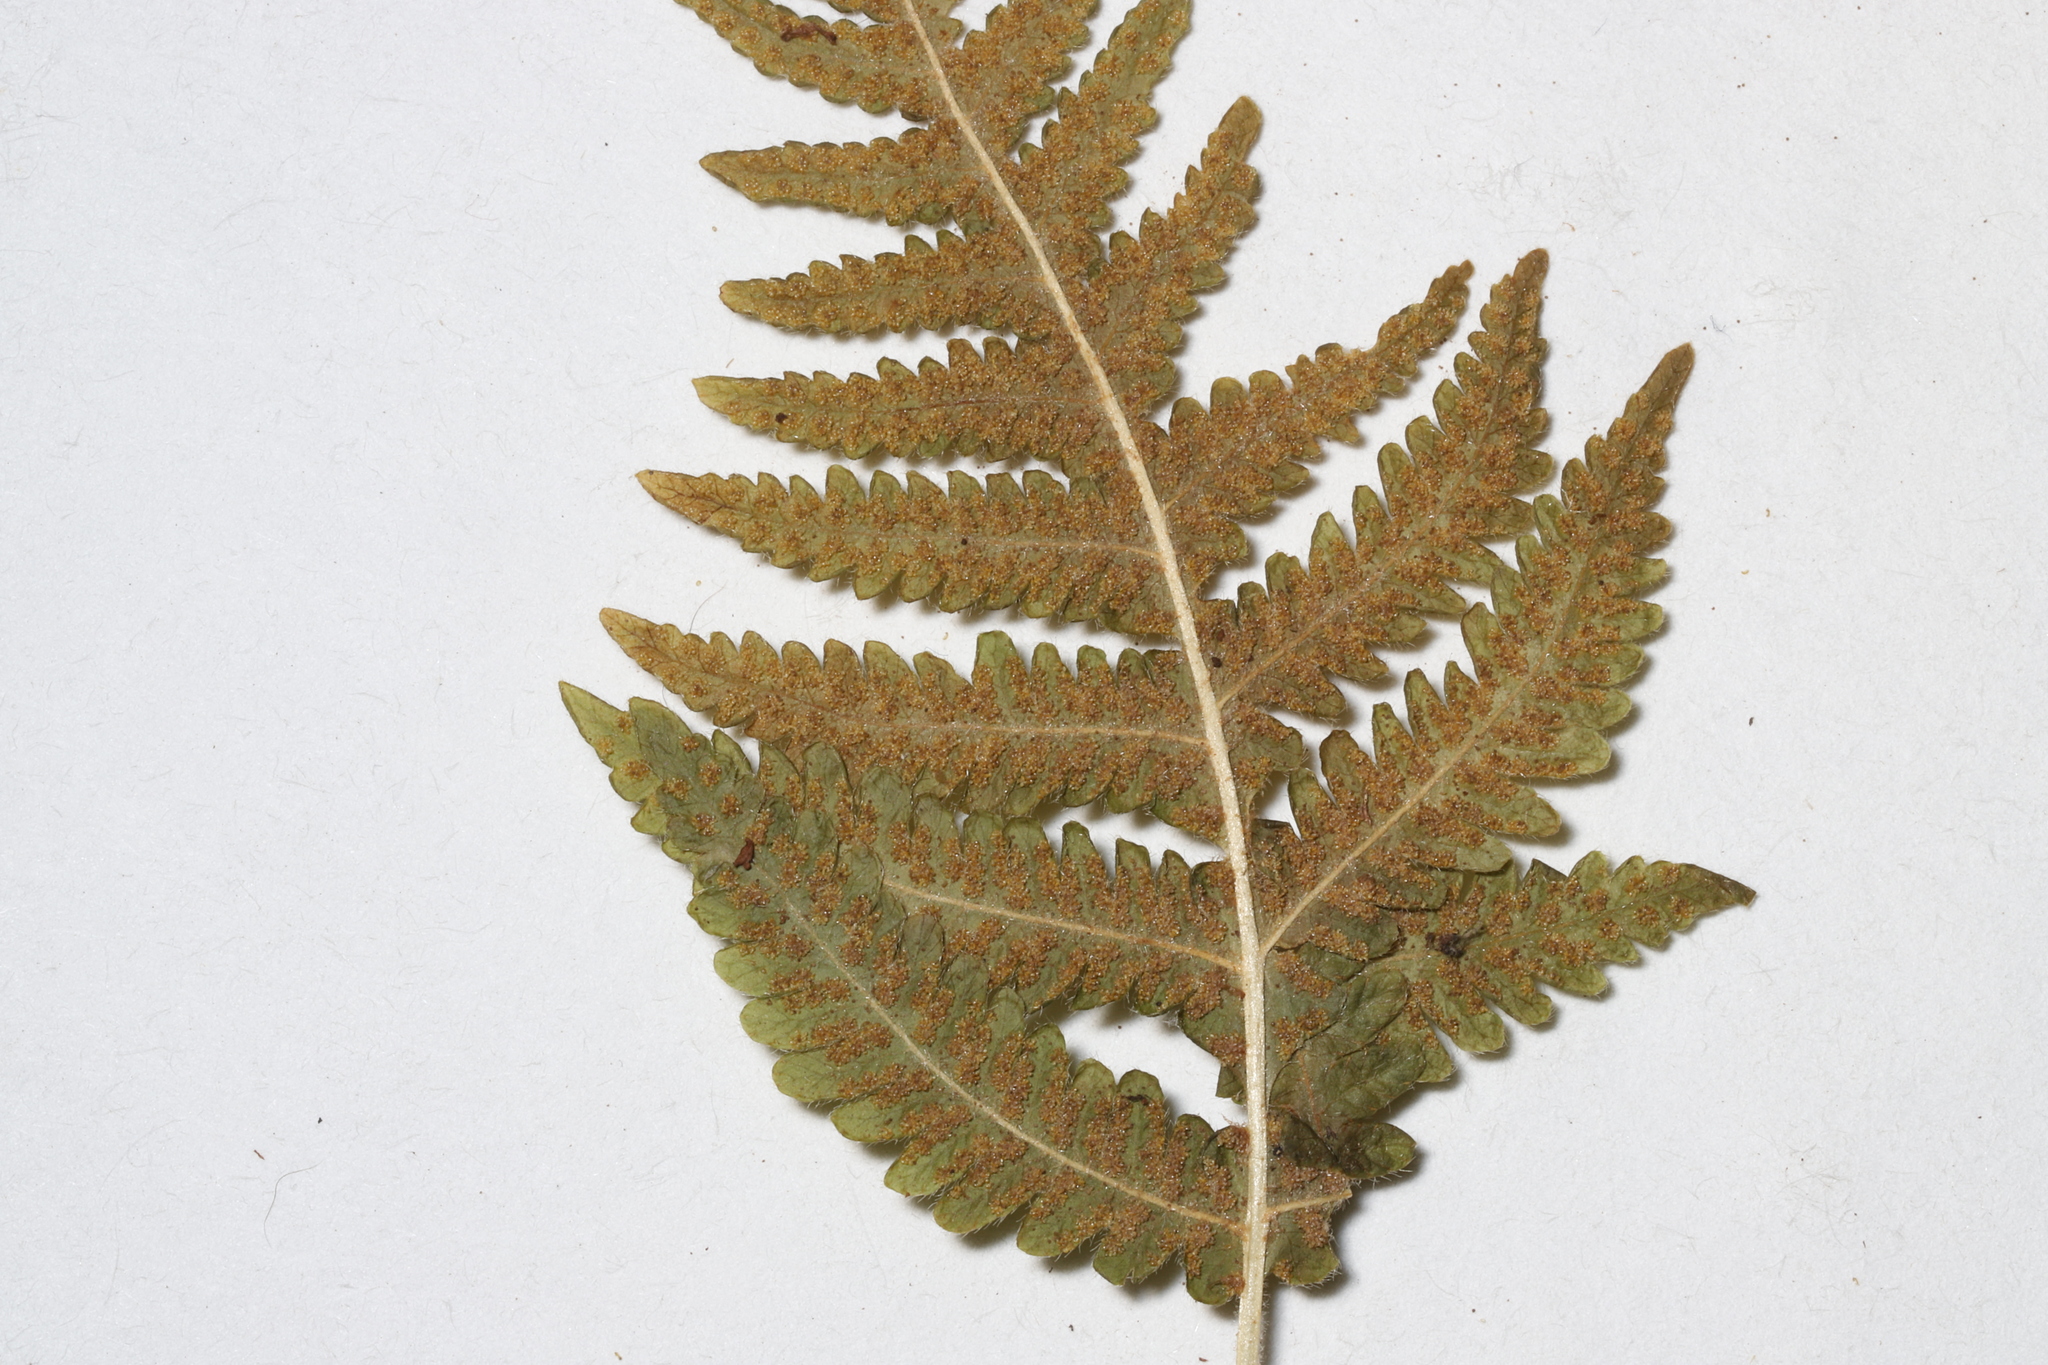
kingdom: Plantae
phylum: Tracheophyta
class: Polypodiopsida
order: Polypodiales
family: Thelypteridaceae
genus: Phegopteris
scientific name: Phegopteris connectilis
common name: Beech fern
